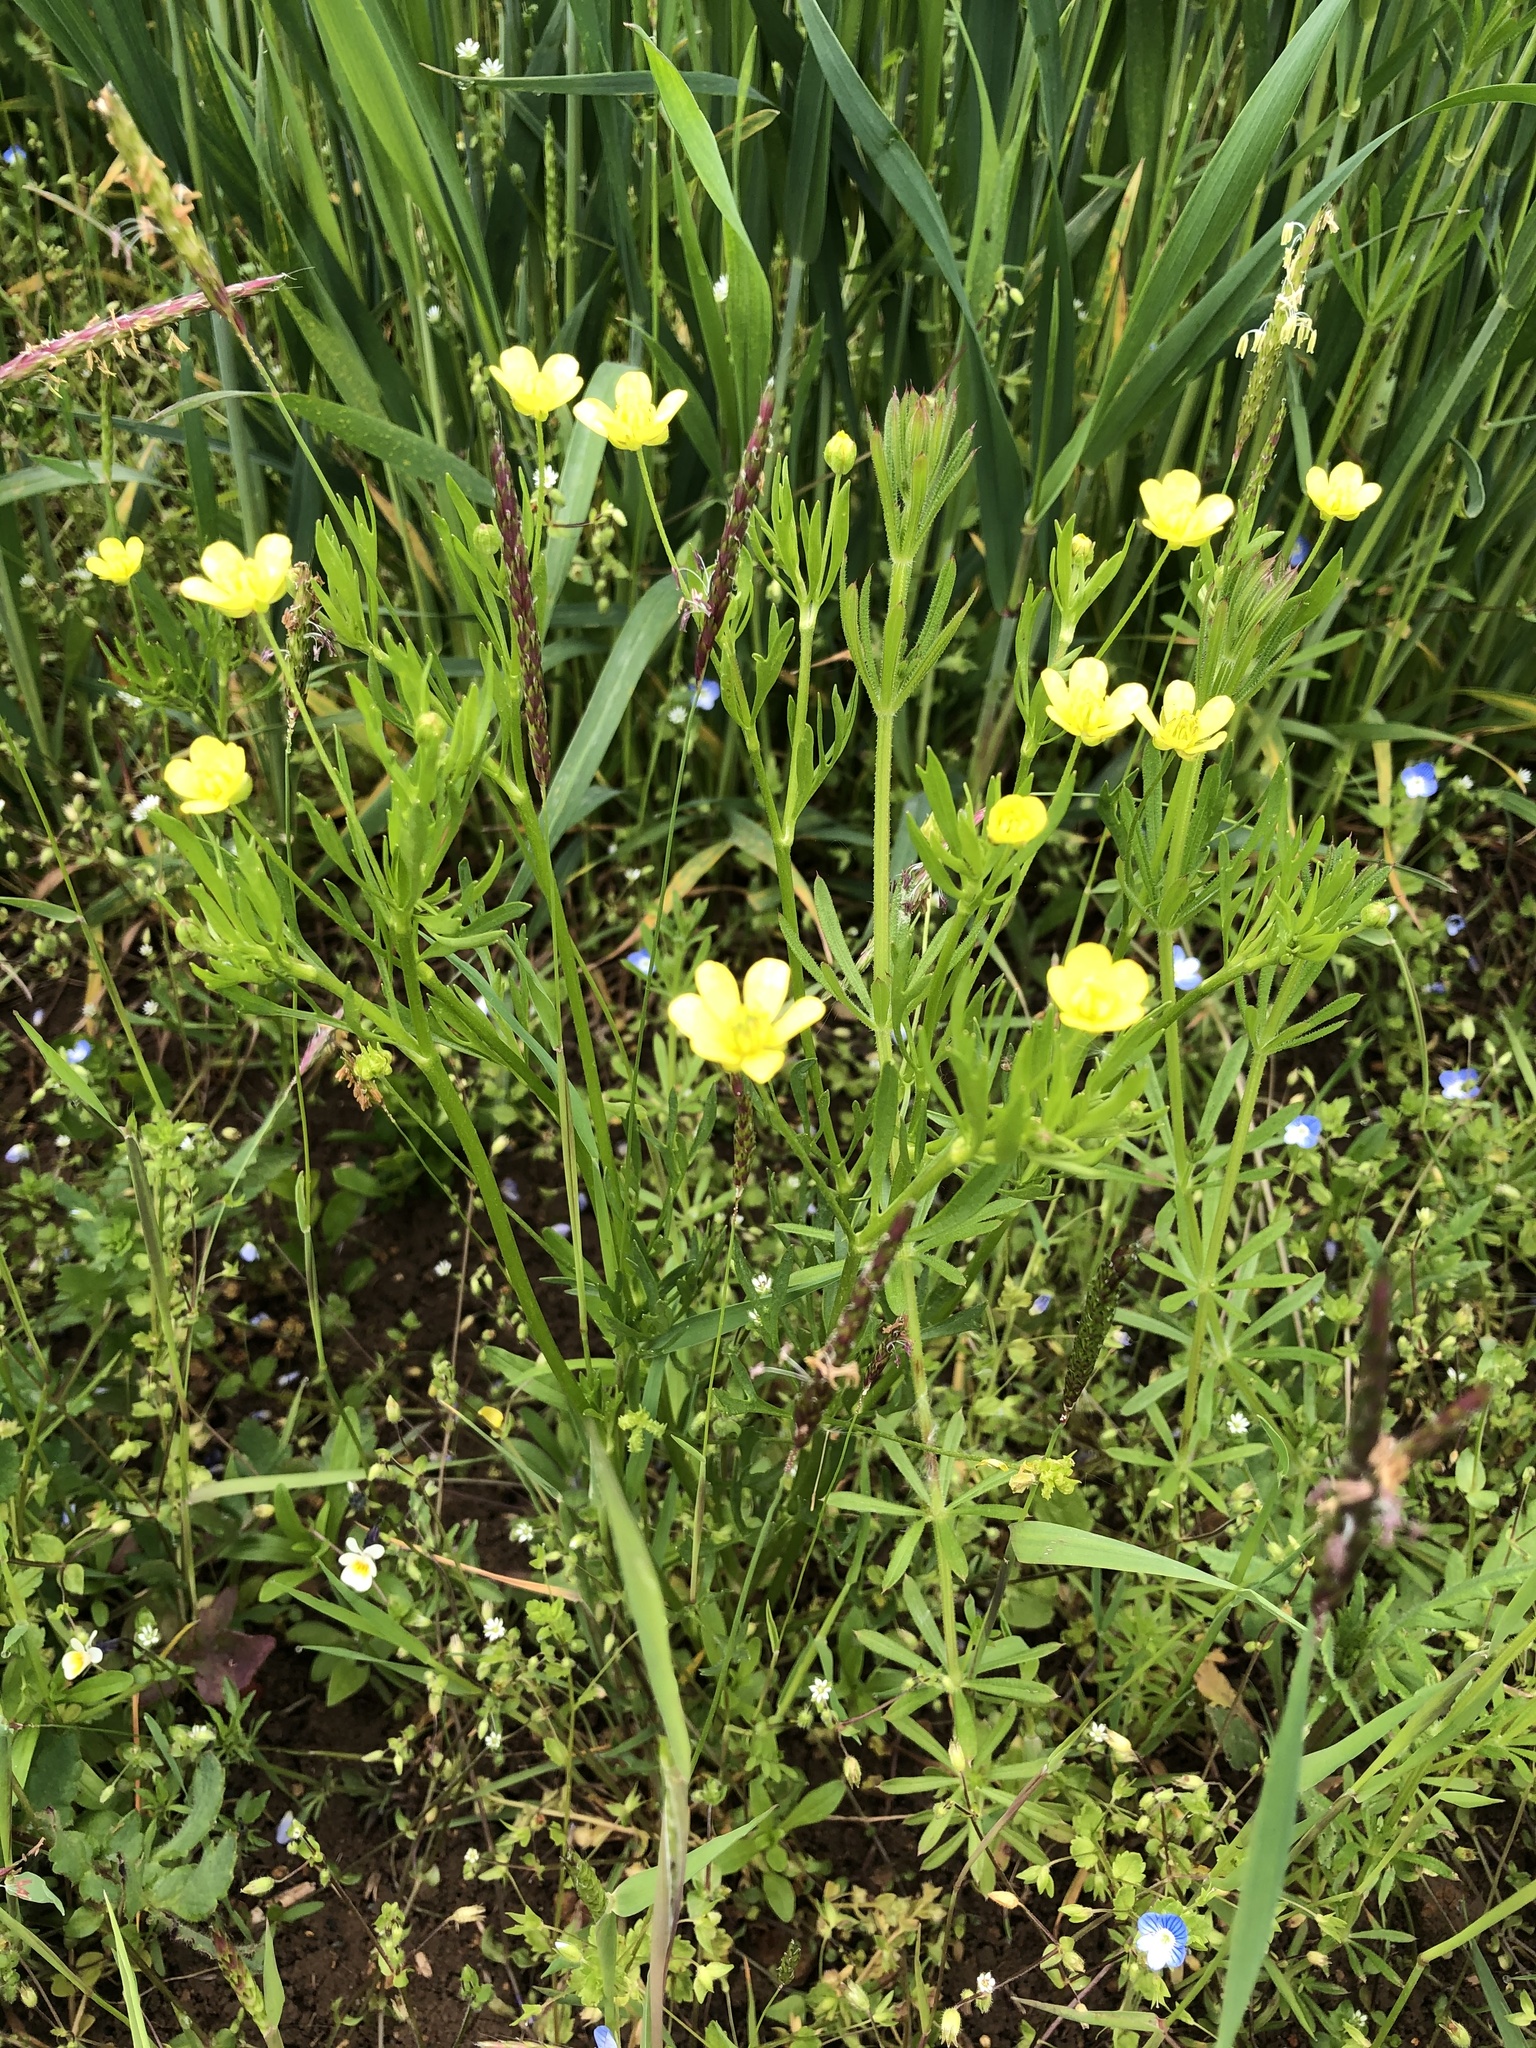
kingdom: Plantae
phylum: Tracheophyta
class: Magnoliopsida
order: Ranunculales
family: Ranunculaceae
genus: Ranunculus
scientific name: Ranunculus arvensis
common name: Corn buttercup
